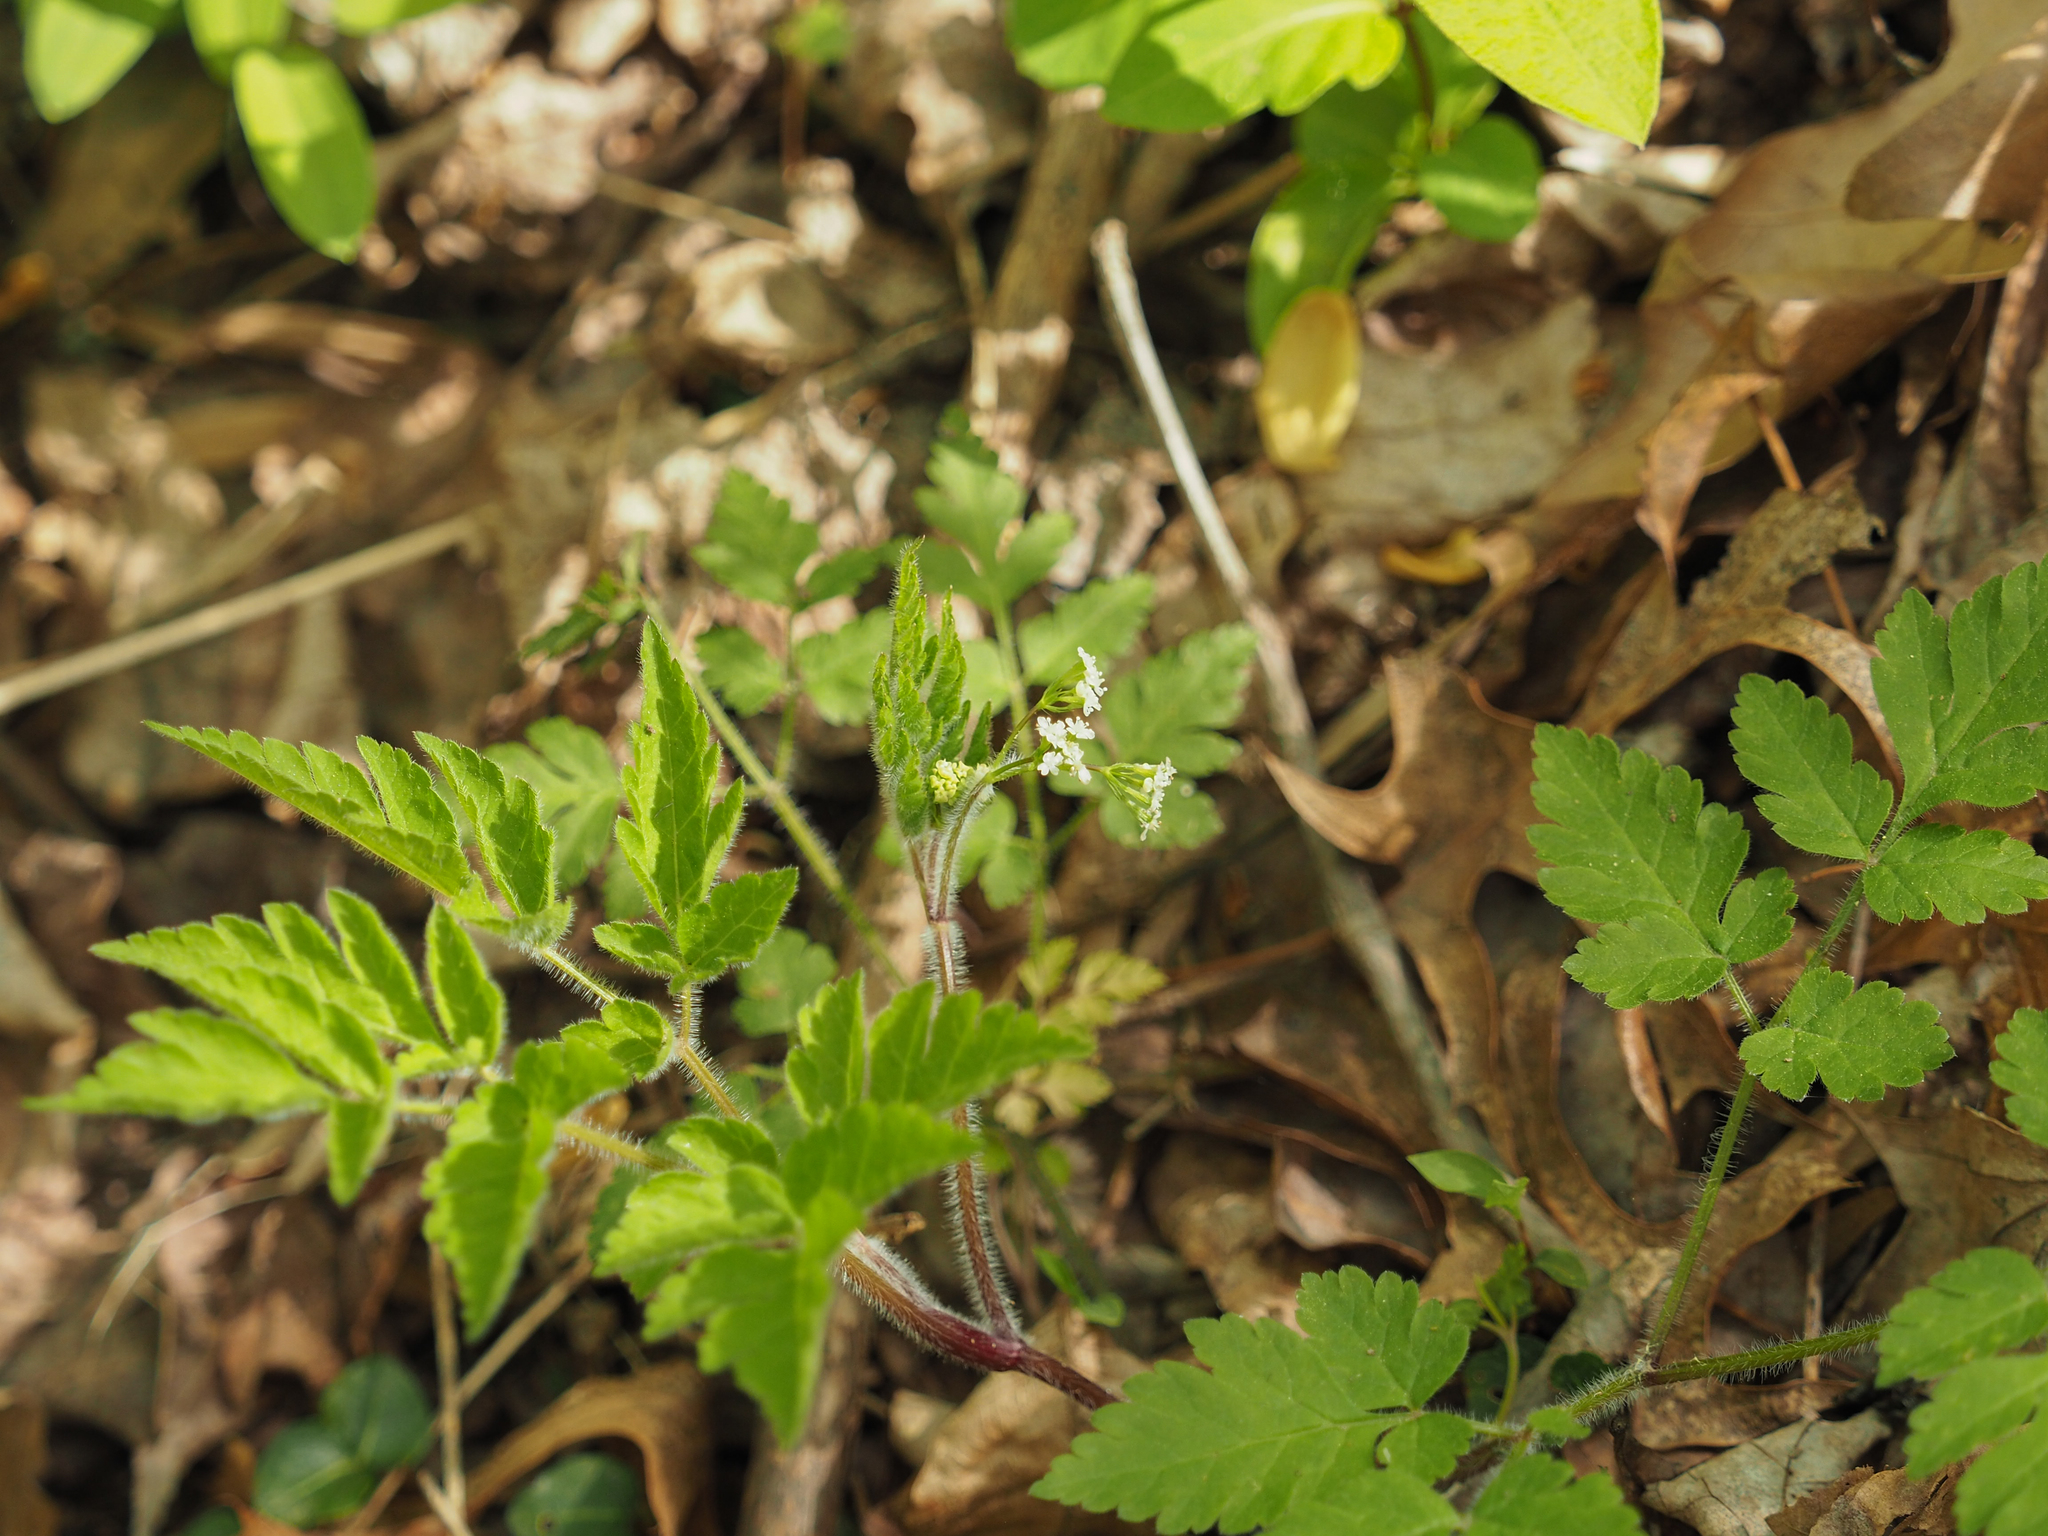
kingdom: Plantae
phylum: Tracheophyta
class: Magnoliopsida
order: Apiales
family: Apiaceae
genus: Osmorhiza
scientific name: Osmorhiza claytonii
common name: Hairy sweet cicely
